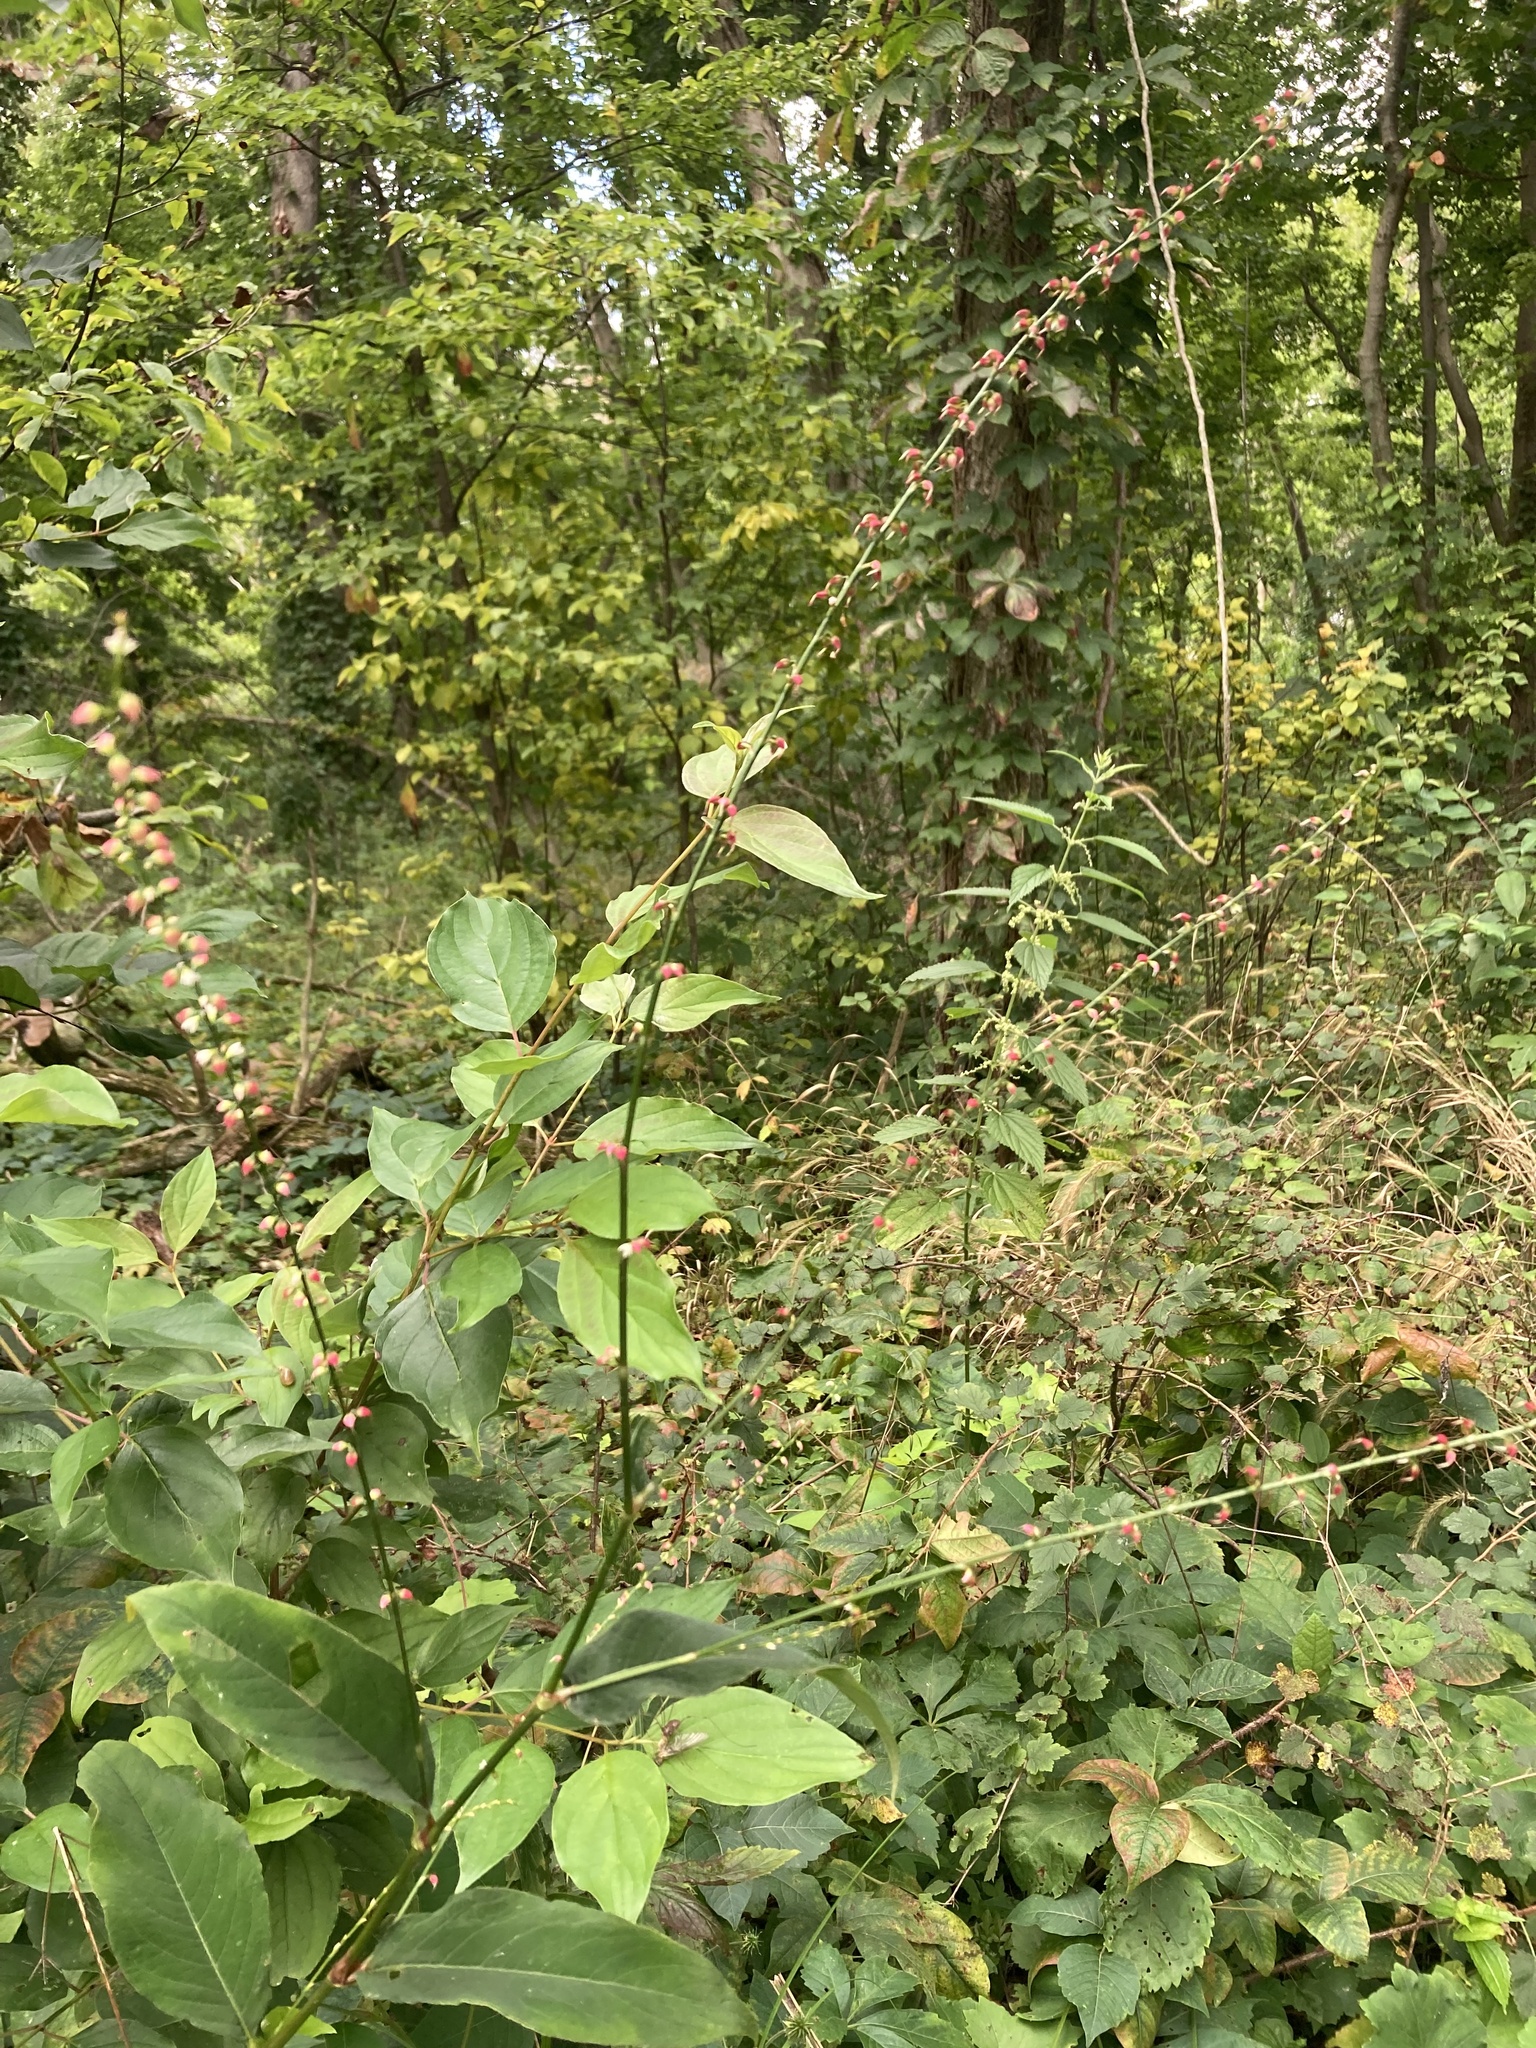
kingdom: Plantae
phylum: Tracheophyta
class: Magnoliopsida
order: Caryophyllales
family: Polygonaceae
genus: Persicaria
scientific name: Persicaria virginiana
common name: Jumpseed
